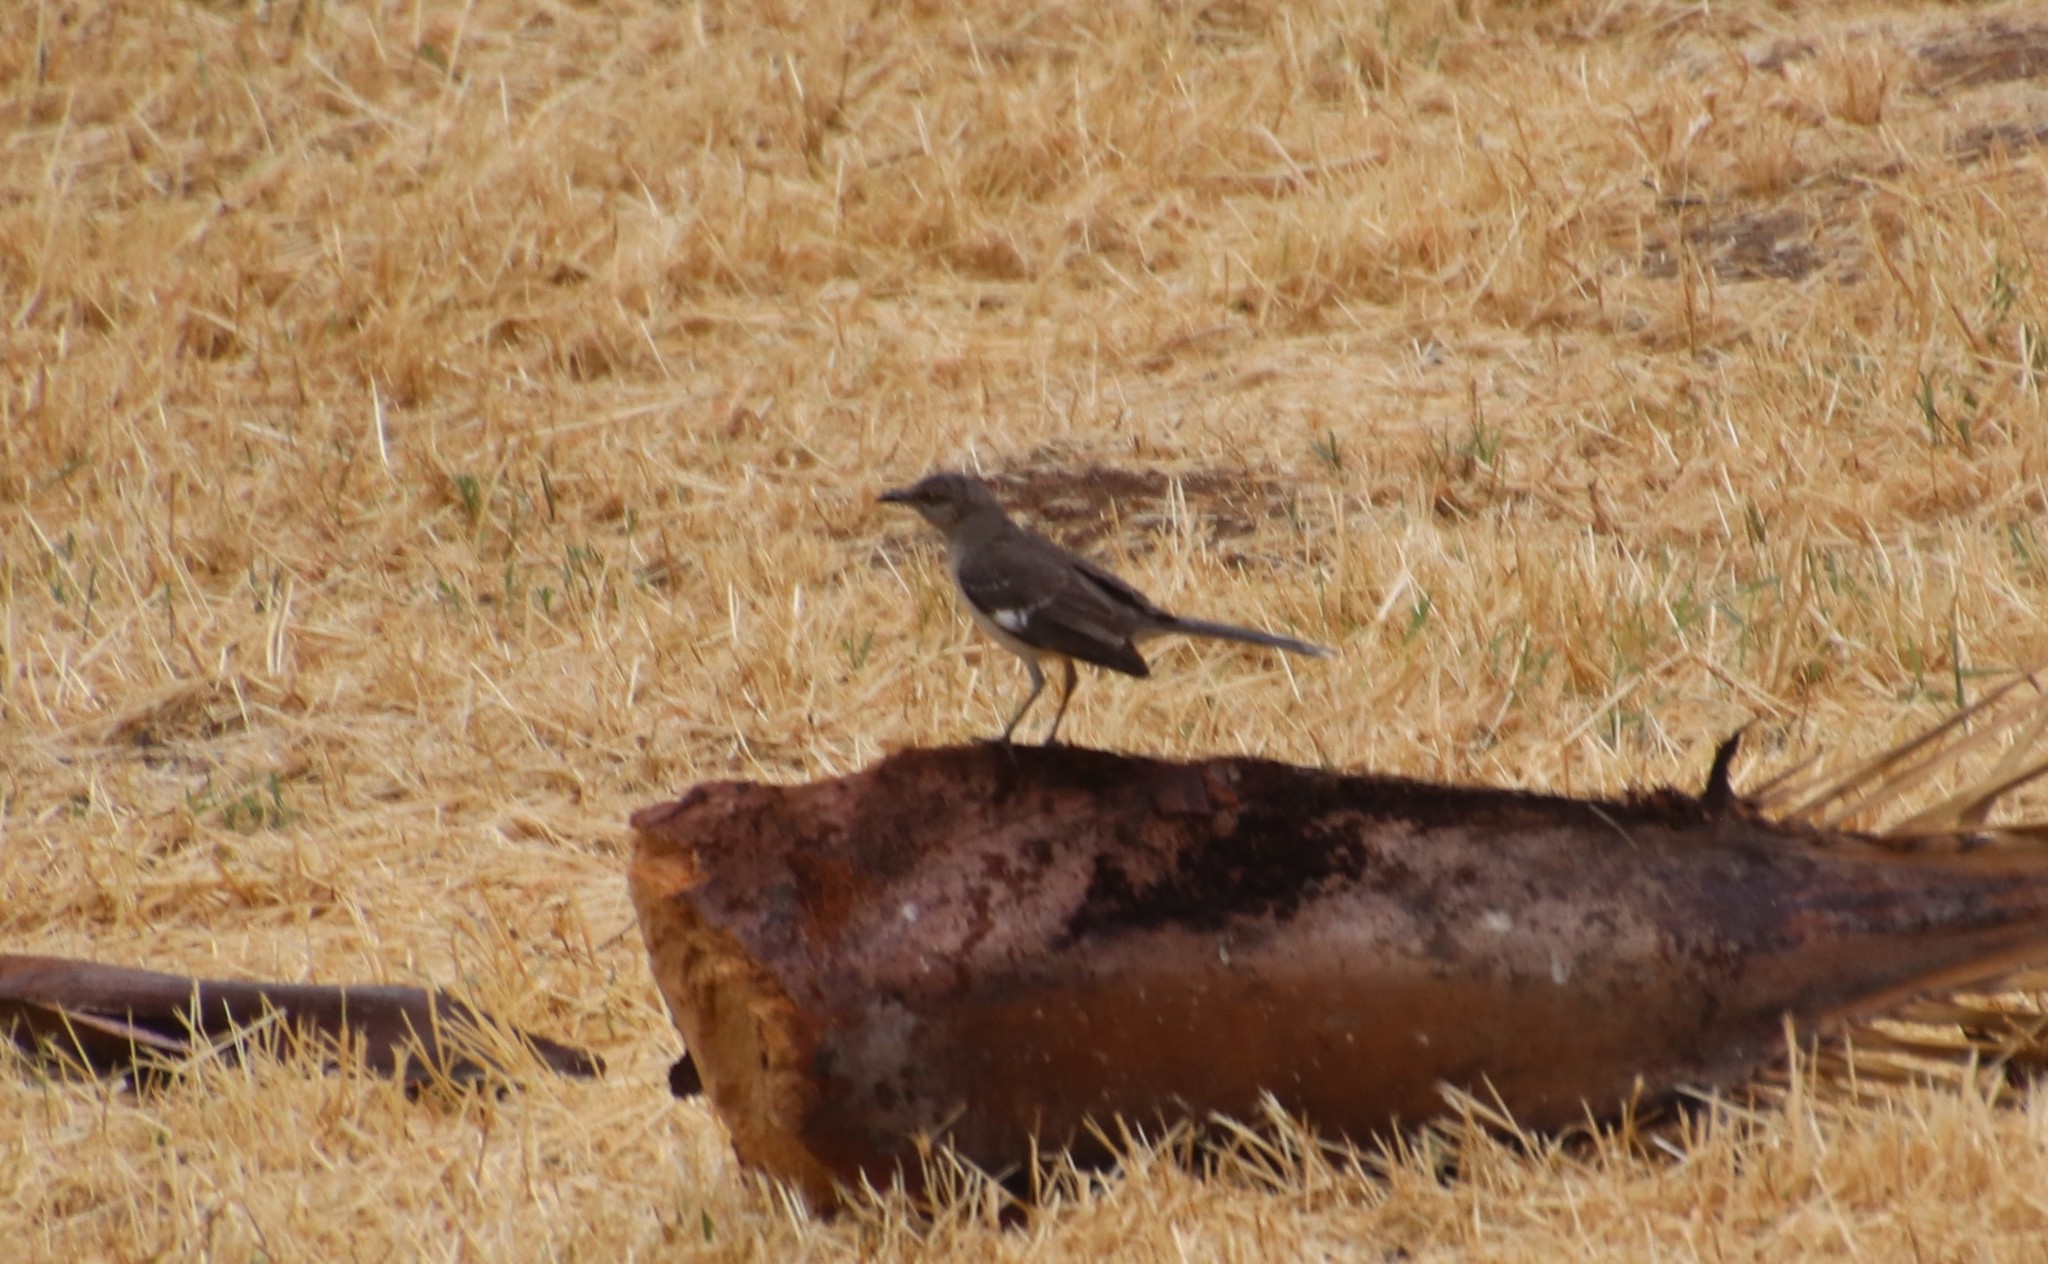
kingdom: Animalia
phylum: Chordata
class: Aves
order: Passeriformes
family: Mimidae
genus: Mimus
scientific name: Mimus polyglottos
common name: Northern mockingbird
